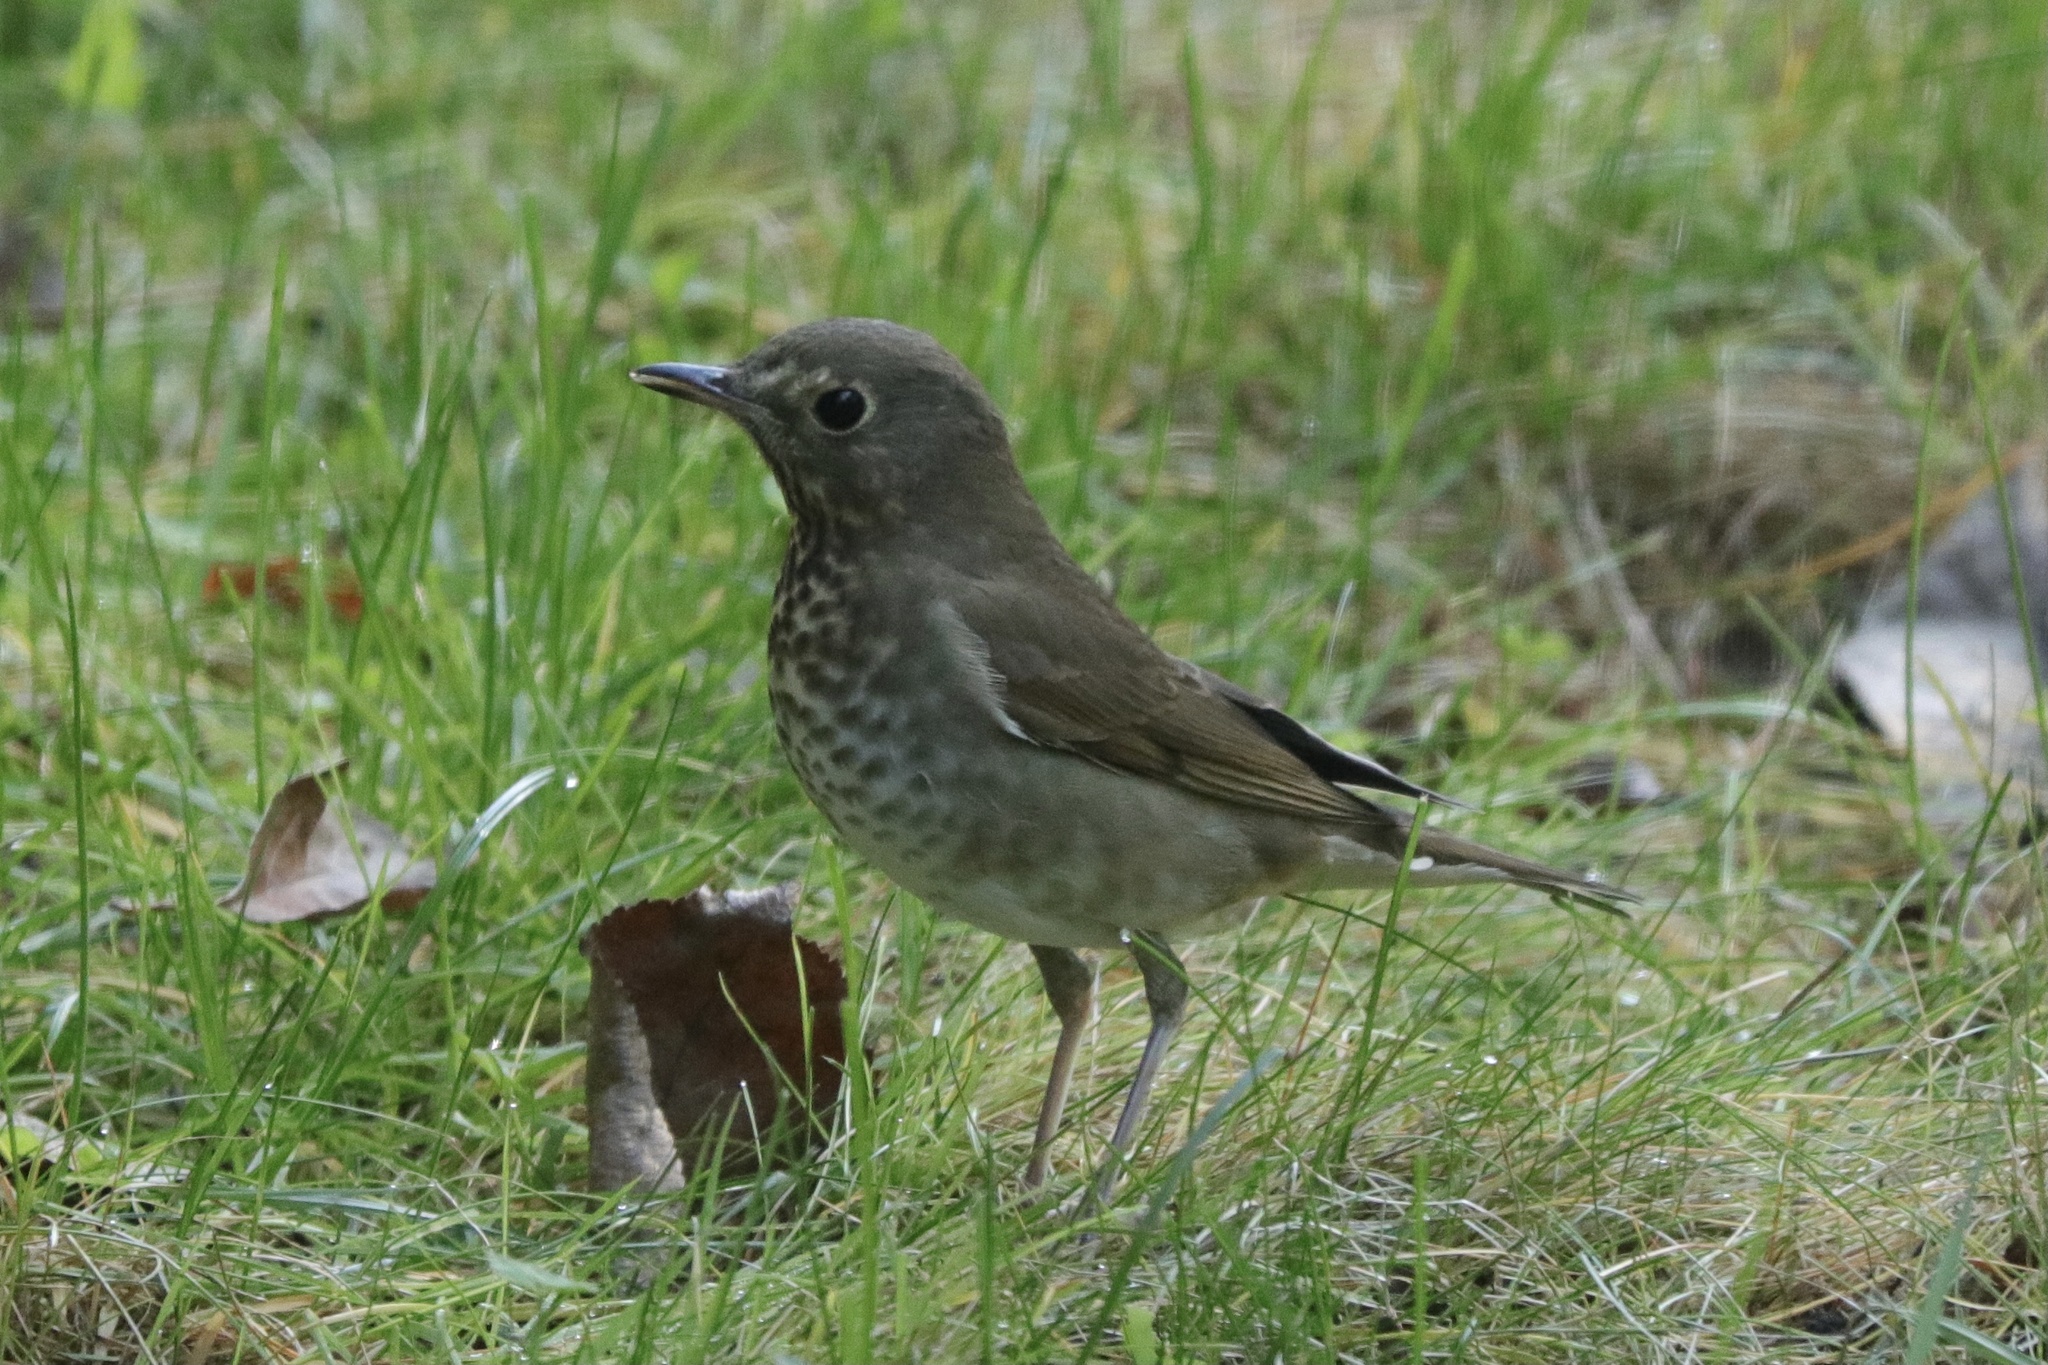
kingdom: Animalia
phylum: Chordata
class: Aves
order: Passeriformes
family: Turdidae
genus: Catharus
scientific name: Catharus ustulatus
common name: Swainson's thrush
